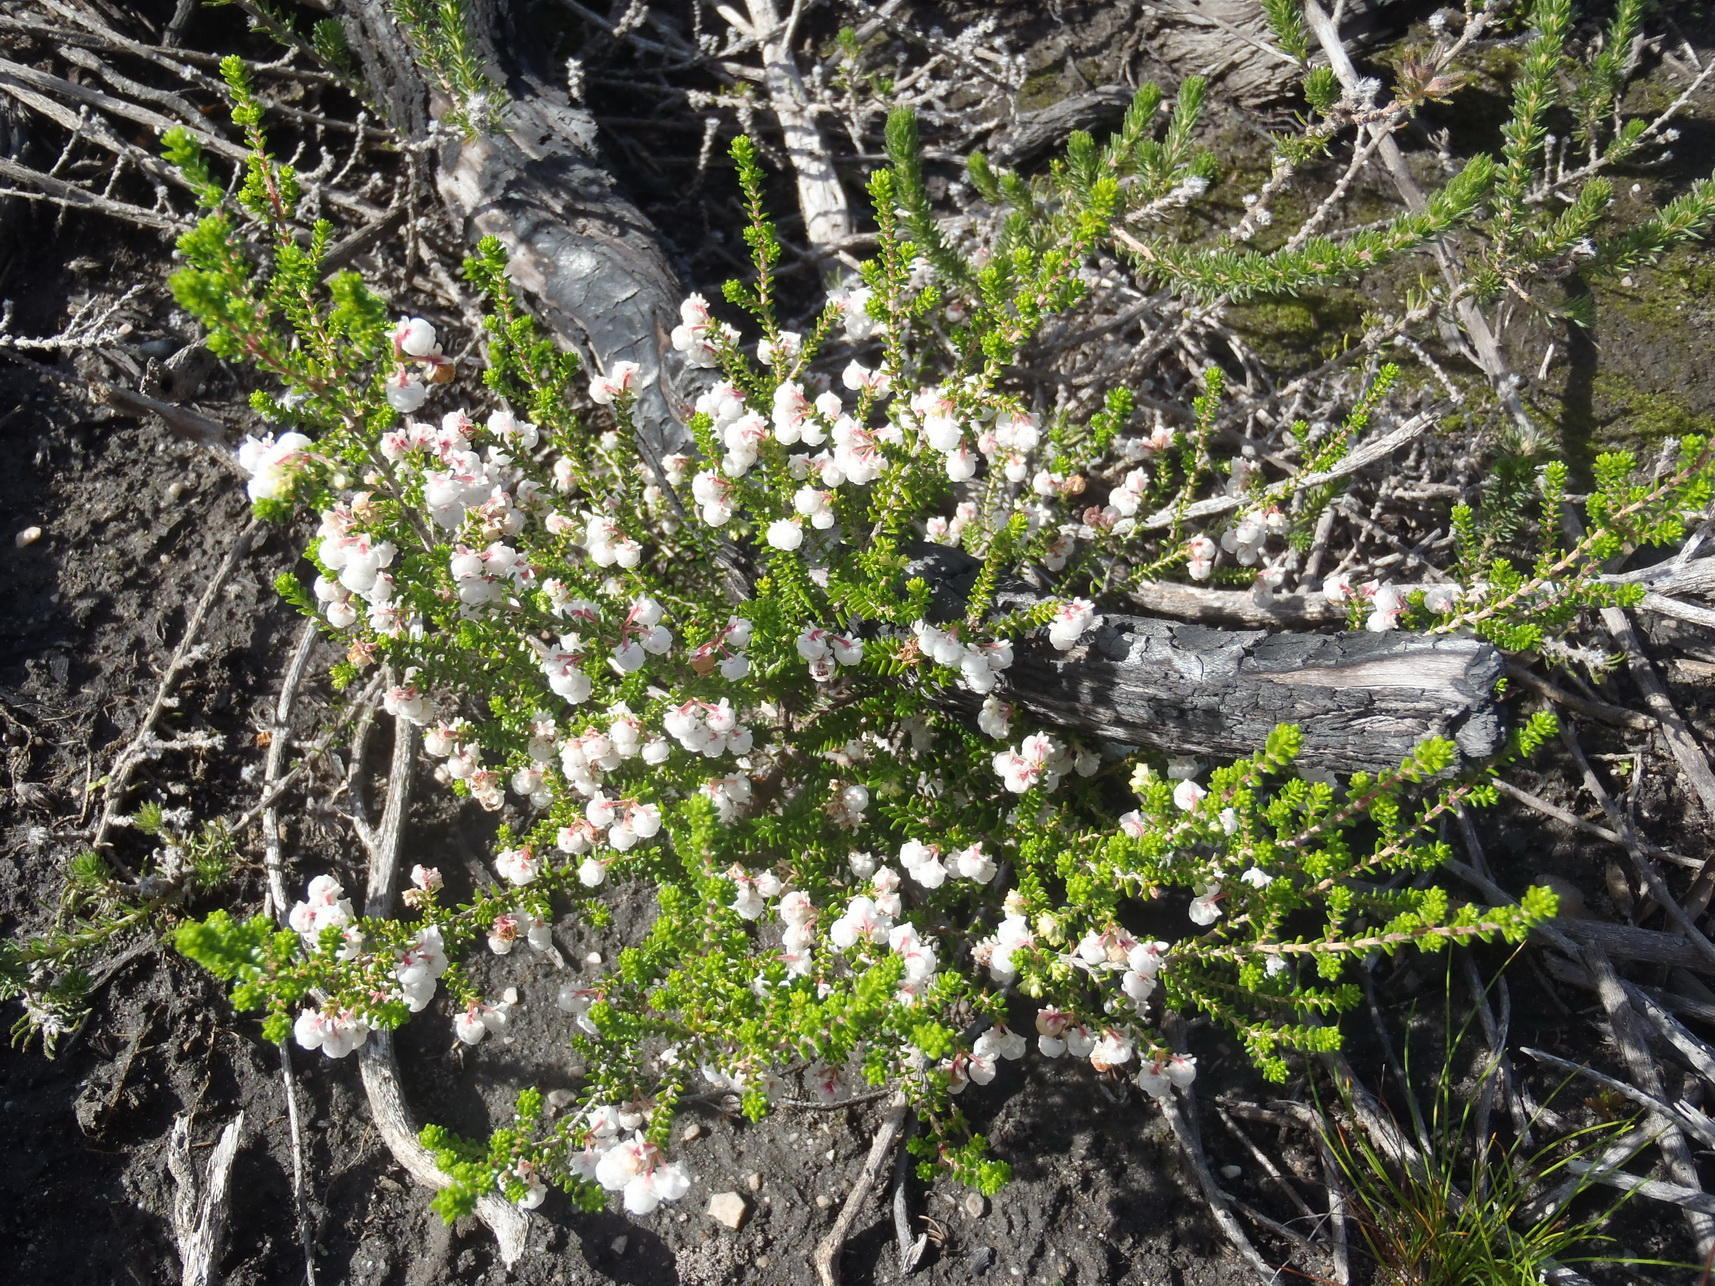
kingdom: Plantae
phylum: Tracheophyta
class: Magnoliopsida
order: Ericales
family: Ericaceae
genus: Erica
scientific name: Erica formosa
